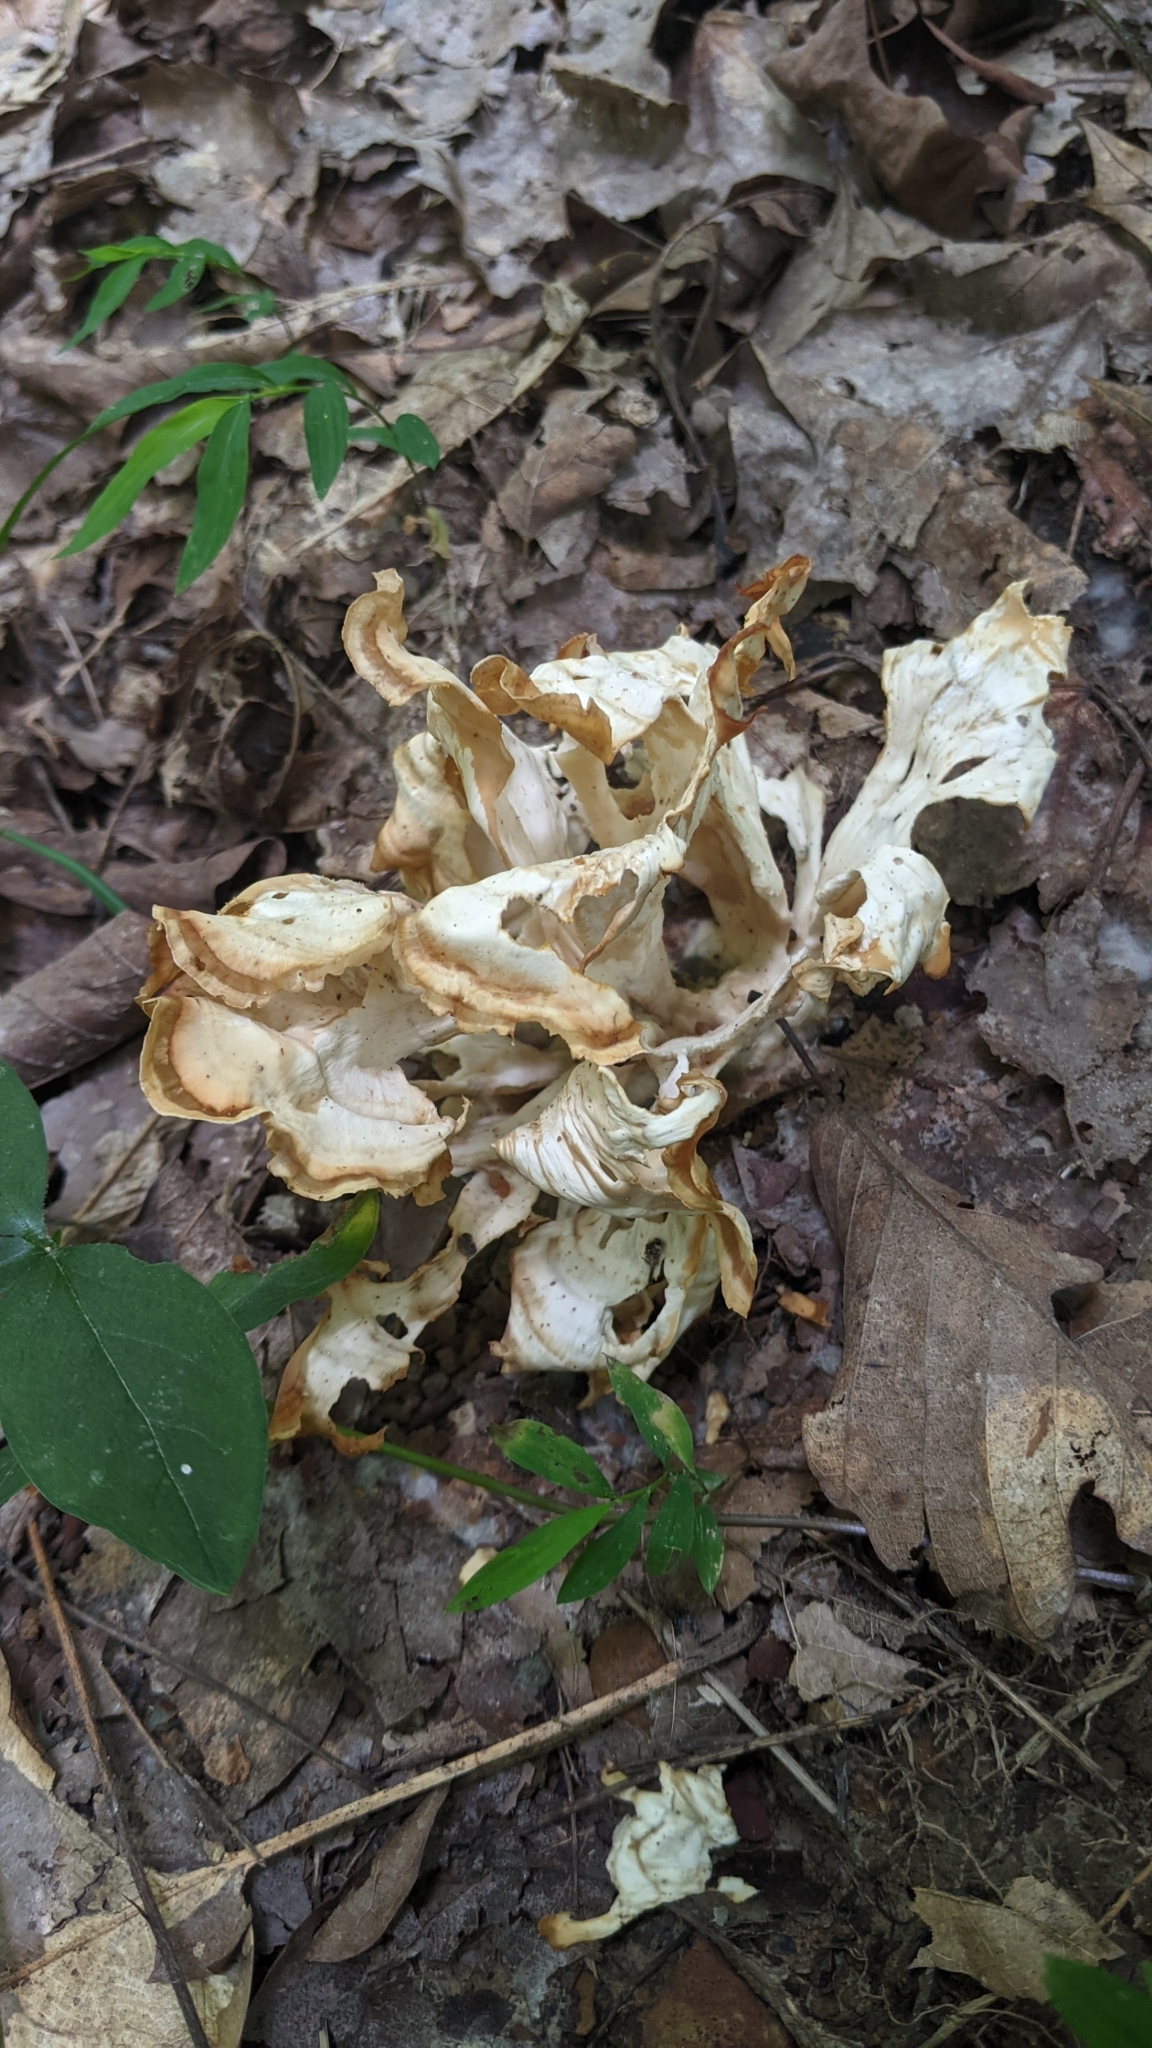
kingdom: Fungi
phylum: Basidiomycota
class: Agaricomycetes
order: Polyporales
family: Grifolaceae
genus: Grifola
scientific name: Grifola frondosa
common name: Hen of the woods
